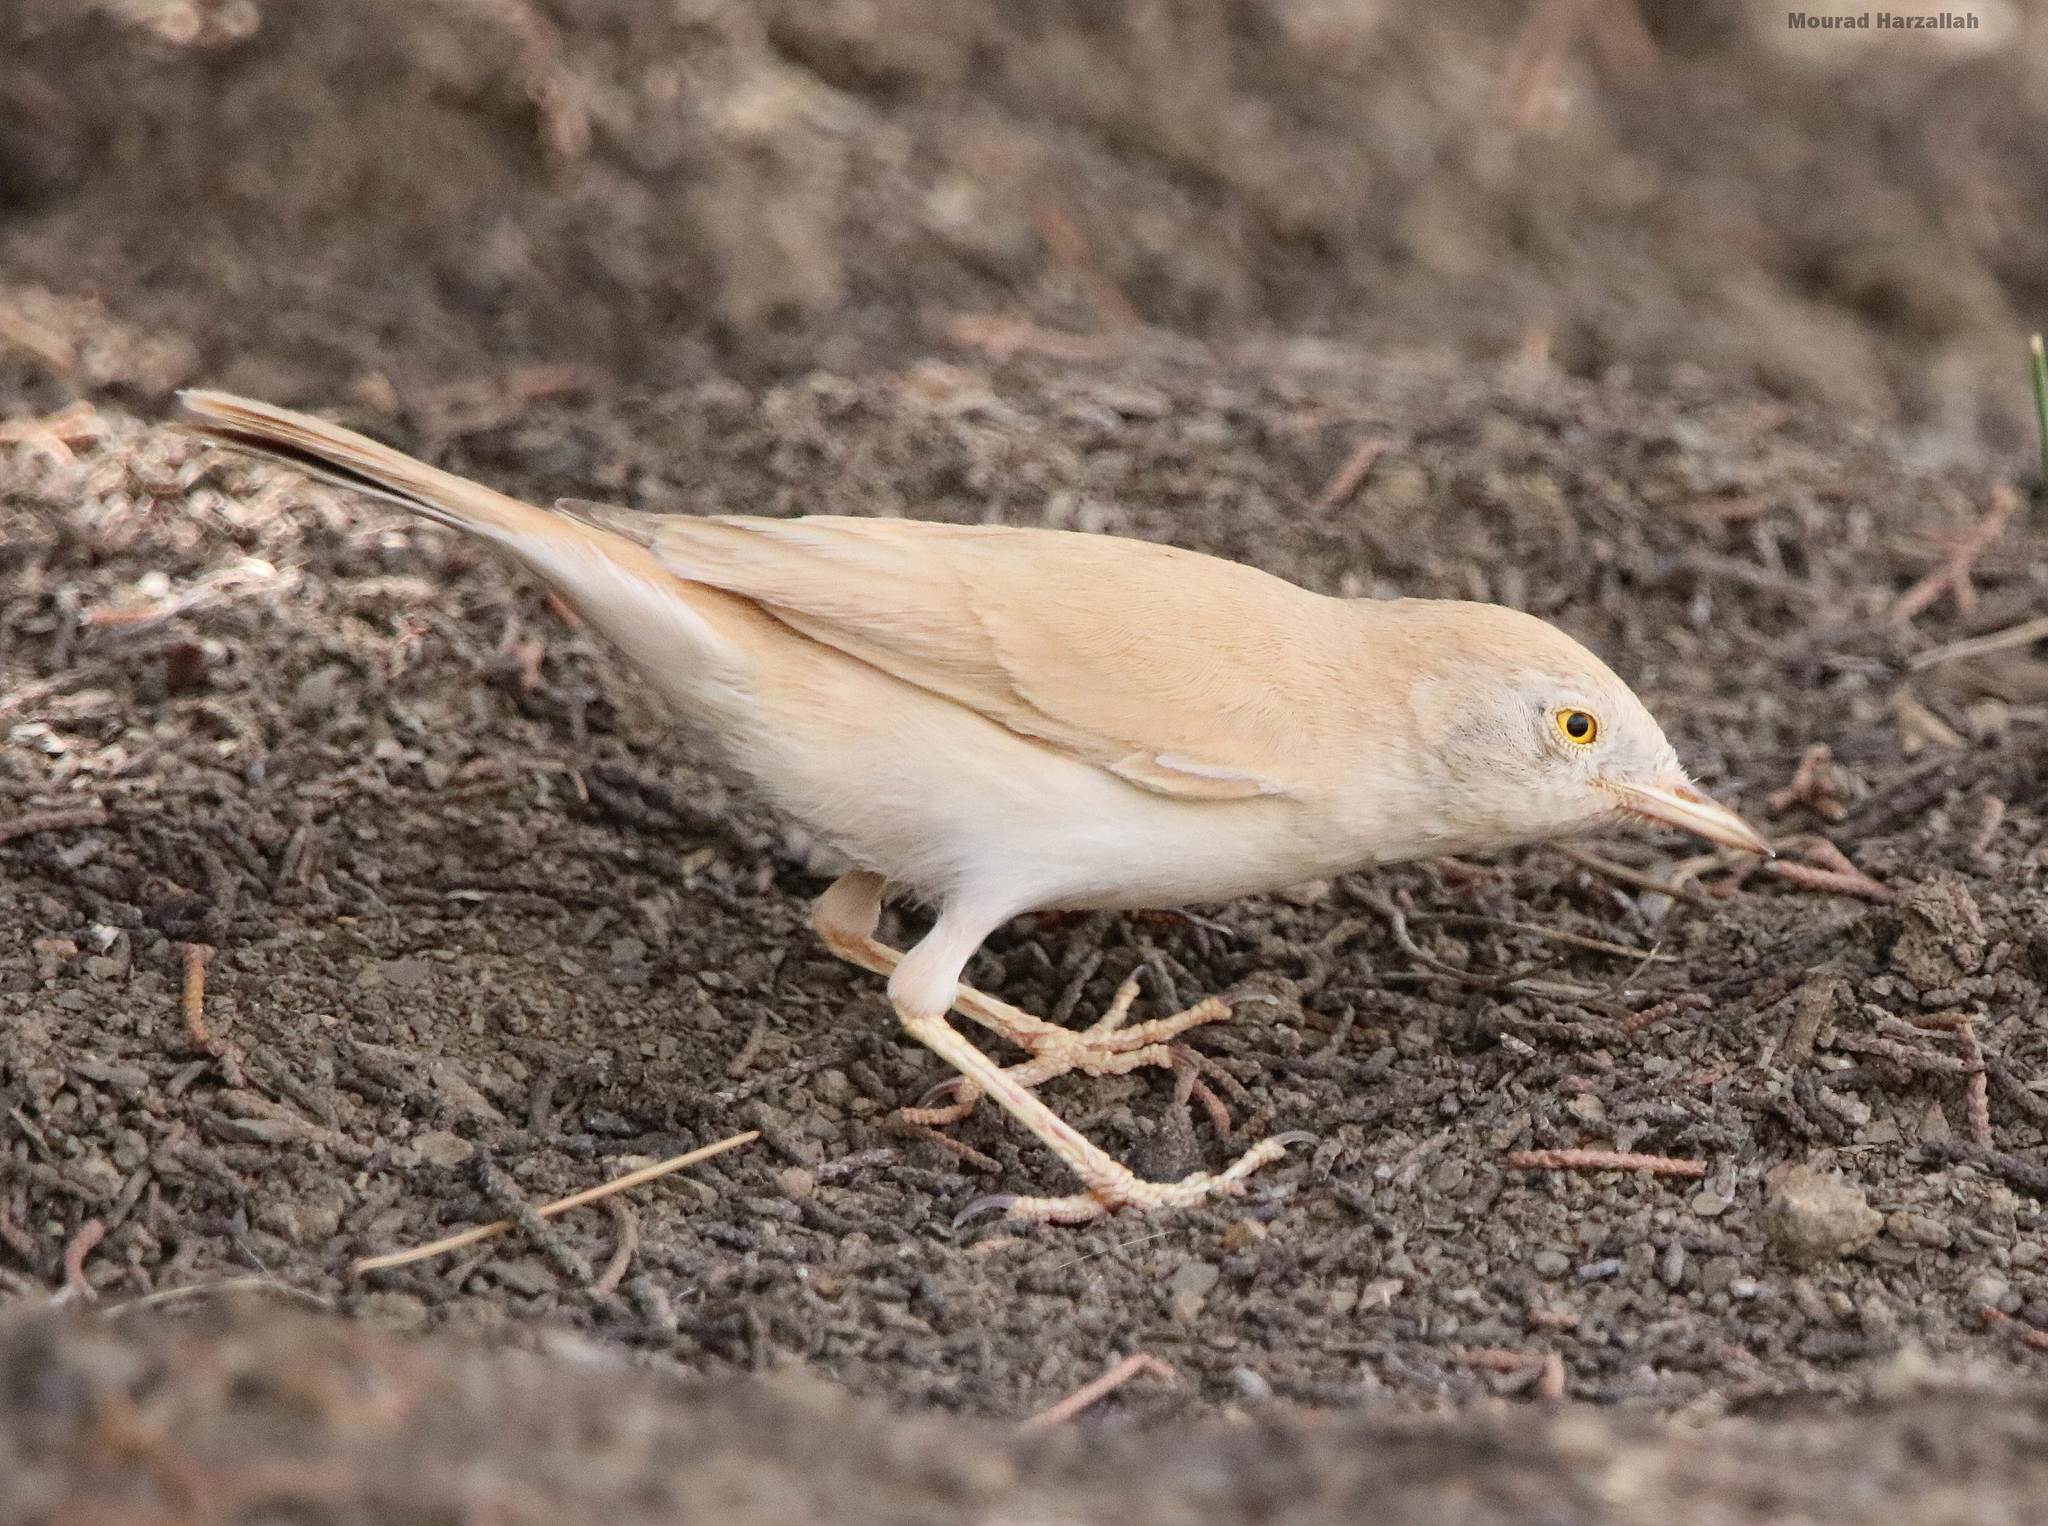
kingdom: Animalia
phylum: Chordata
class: Aves
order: Passeriformes
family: Sylviidae
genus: Sylvia
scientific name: Sylvia deserti
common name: African desert warbler
